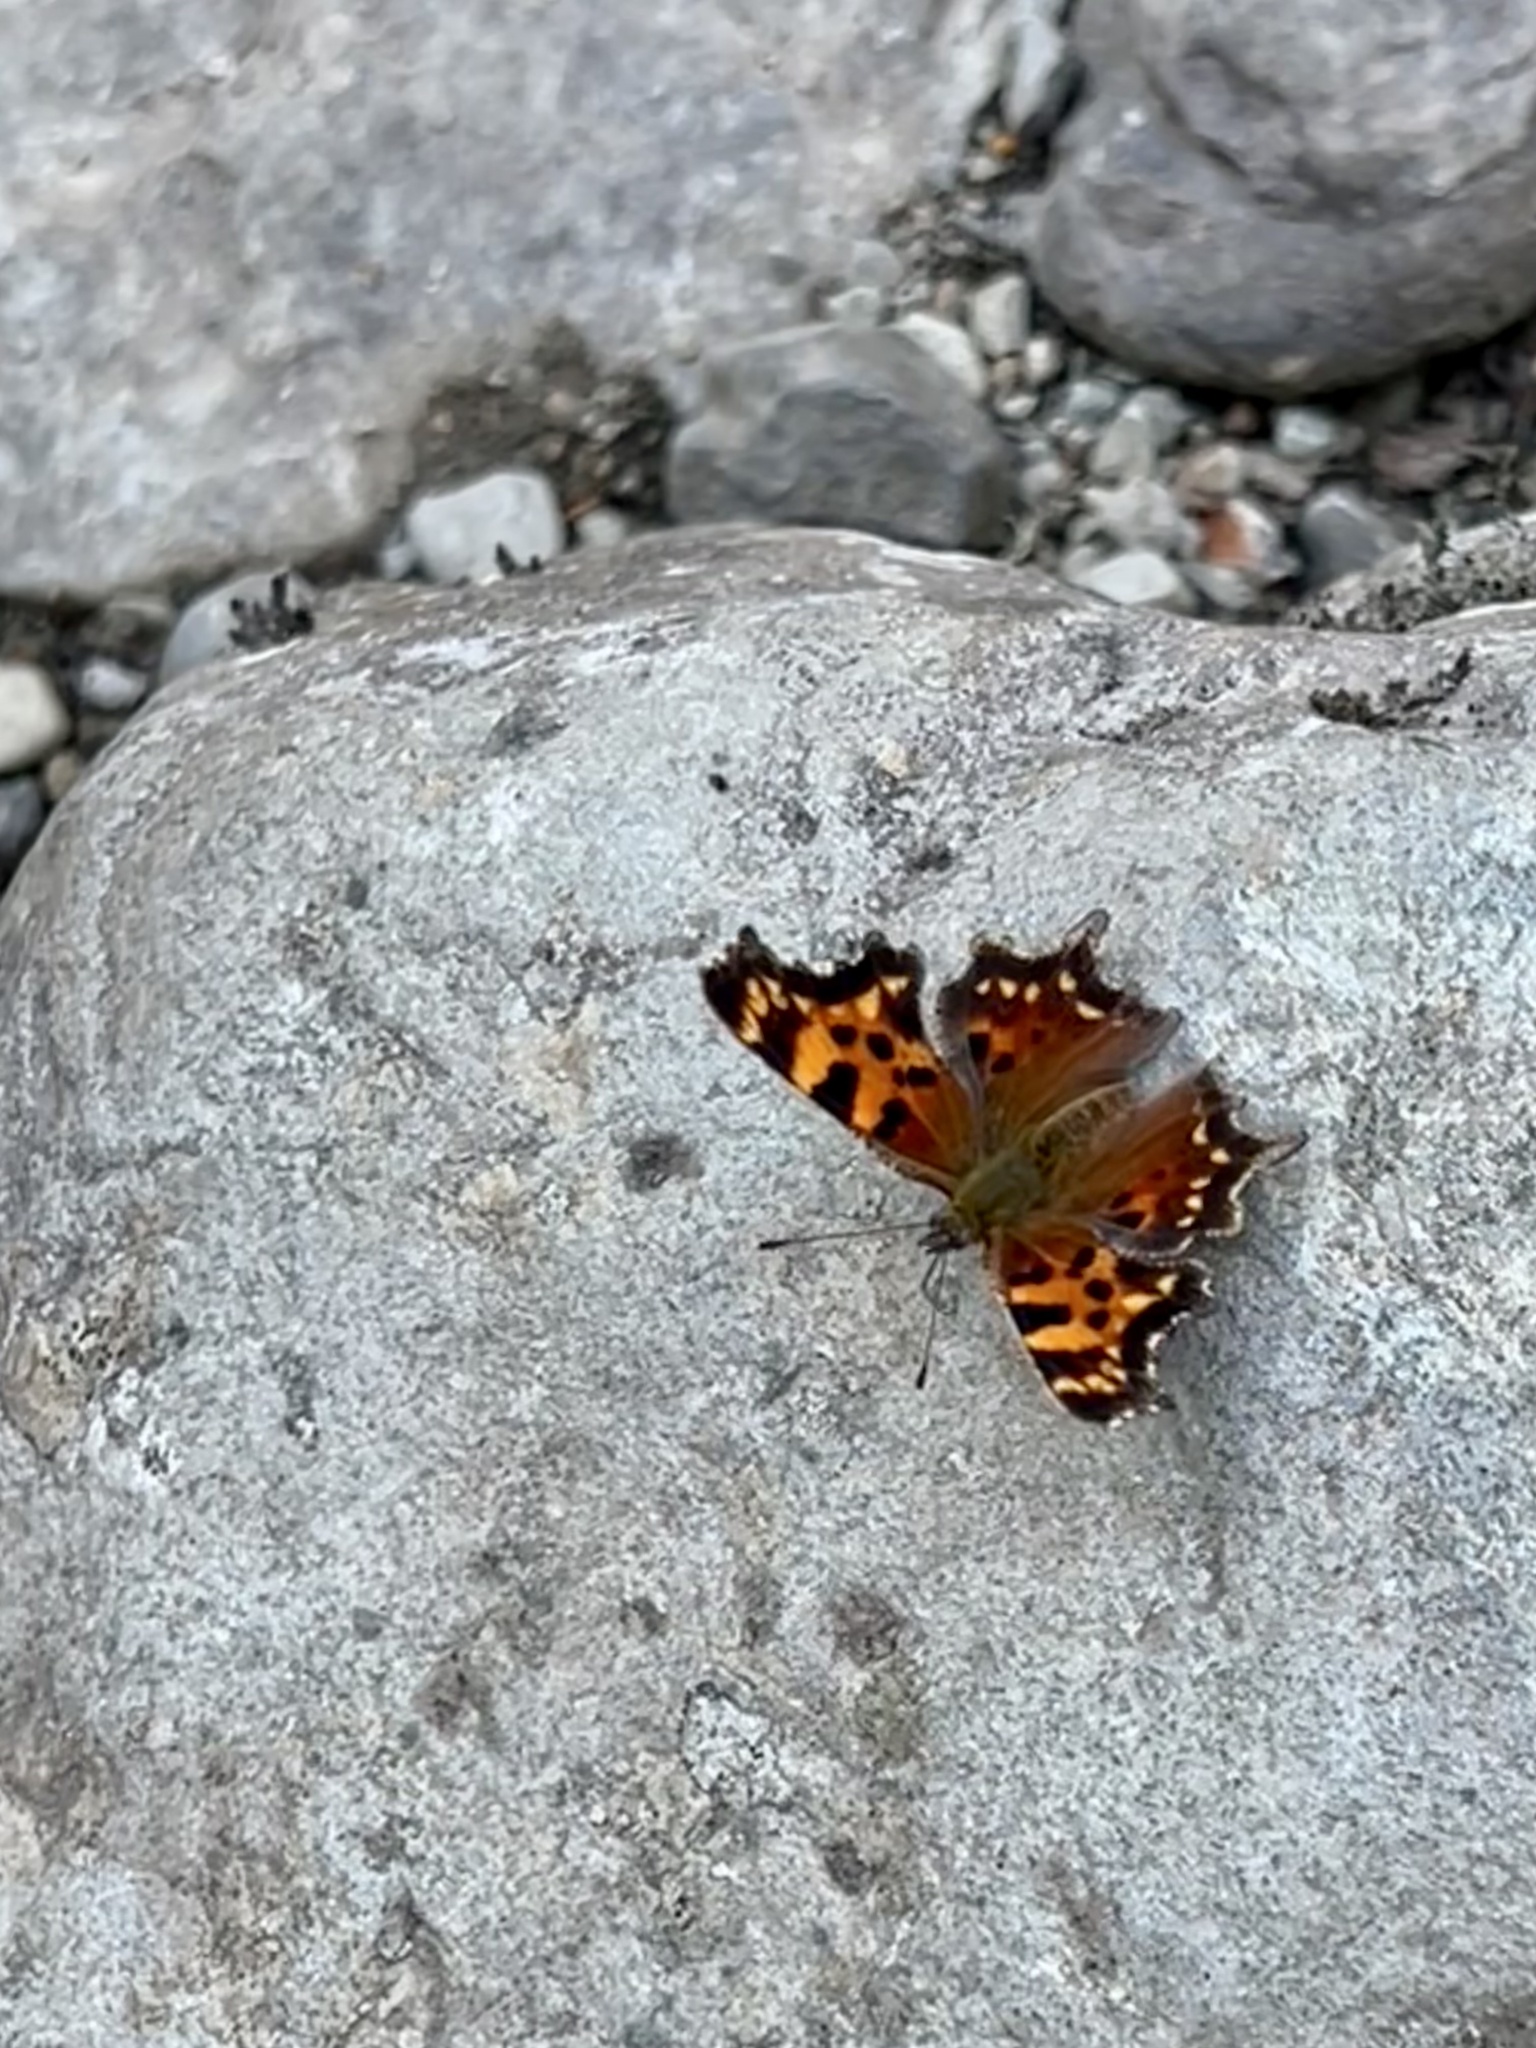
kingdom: Animalia
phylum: Arthropoda
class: Insecta
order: Lepidoptera
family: Nymphalidae
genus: Polygonia
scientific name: Polygonia faunus
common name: Green comma
